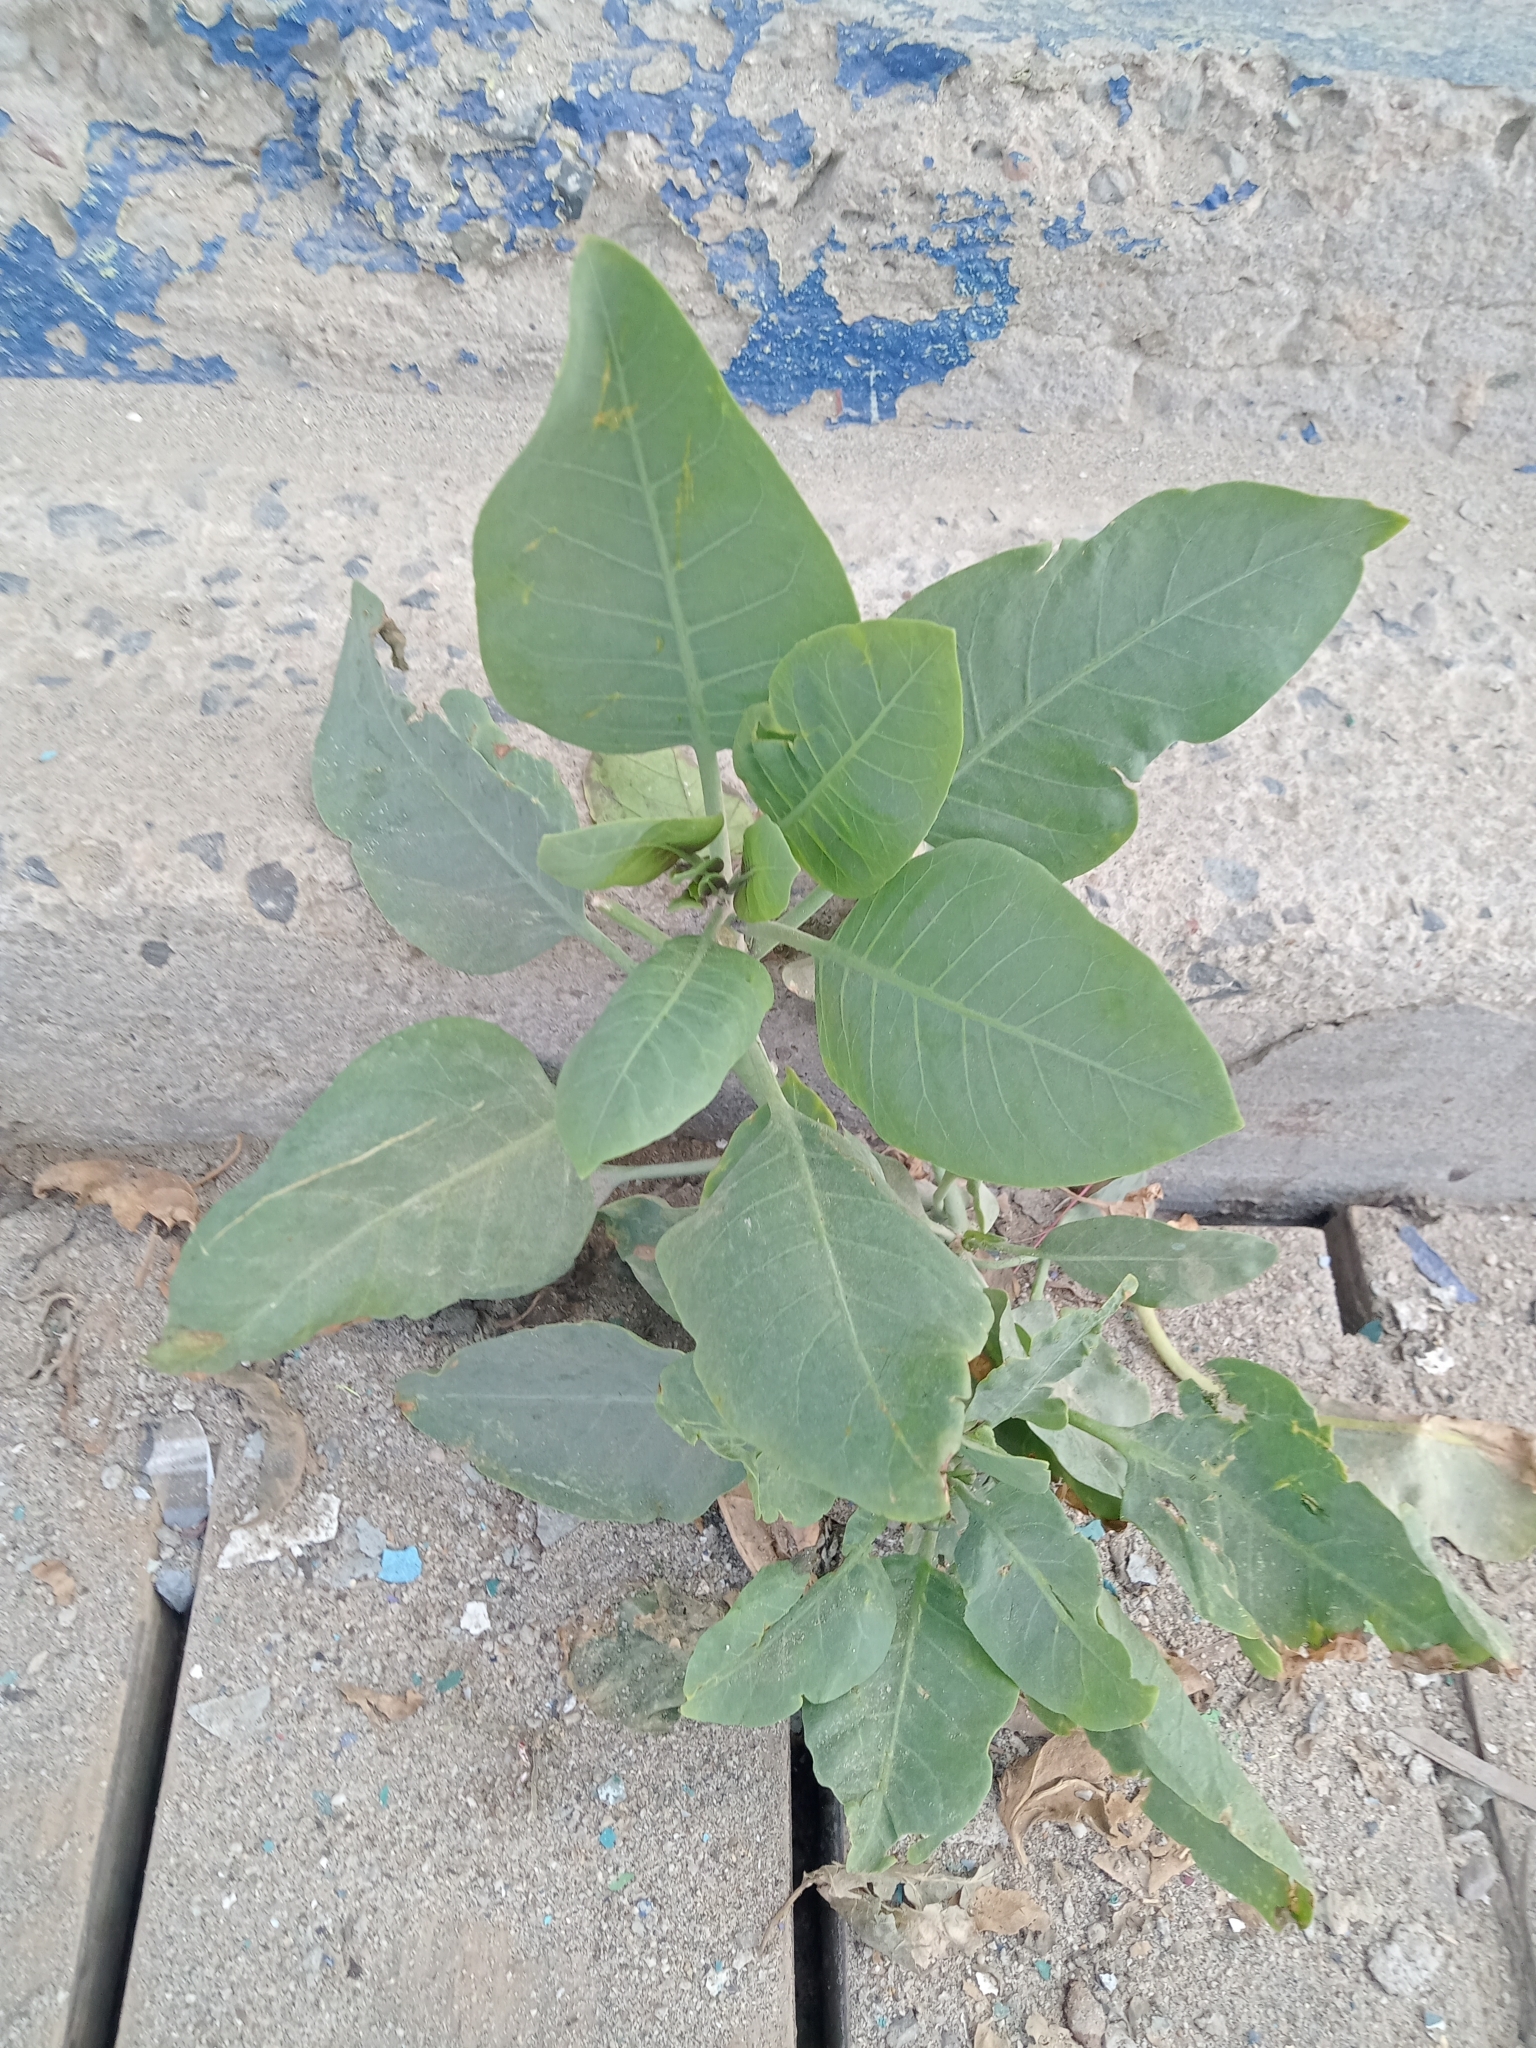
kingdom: Plantae
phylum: Tracheophyta
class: Magnoliopsida
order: Solanales
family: Solanaceae
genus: Nicotiana
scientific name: Nicotiana glauca
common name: Tree tobacco
